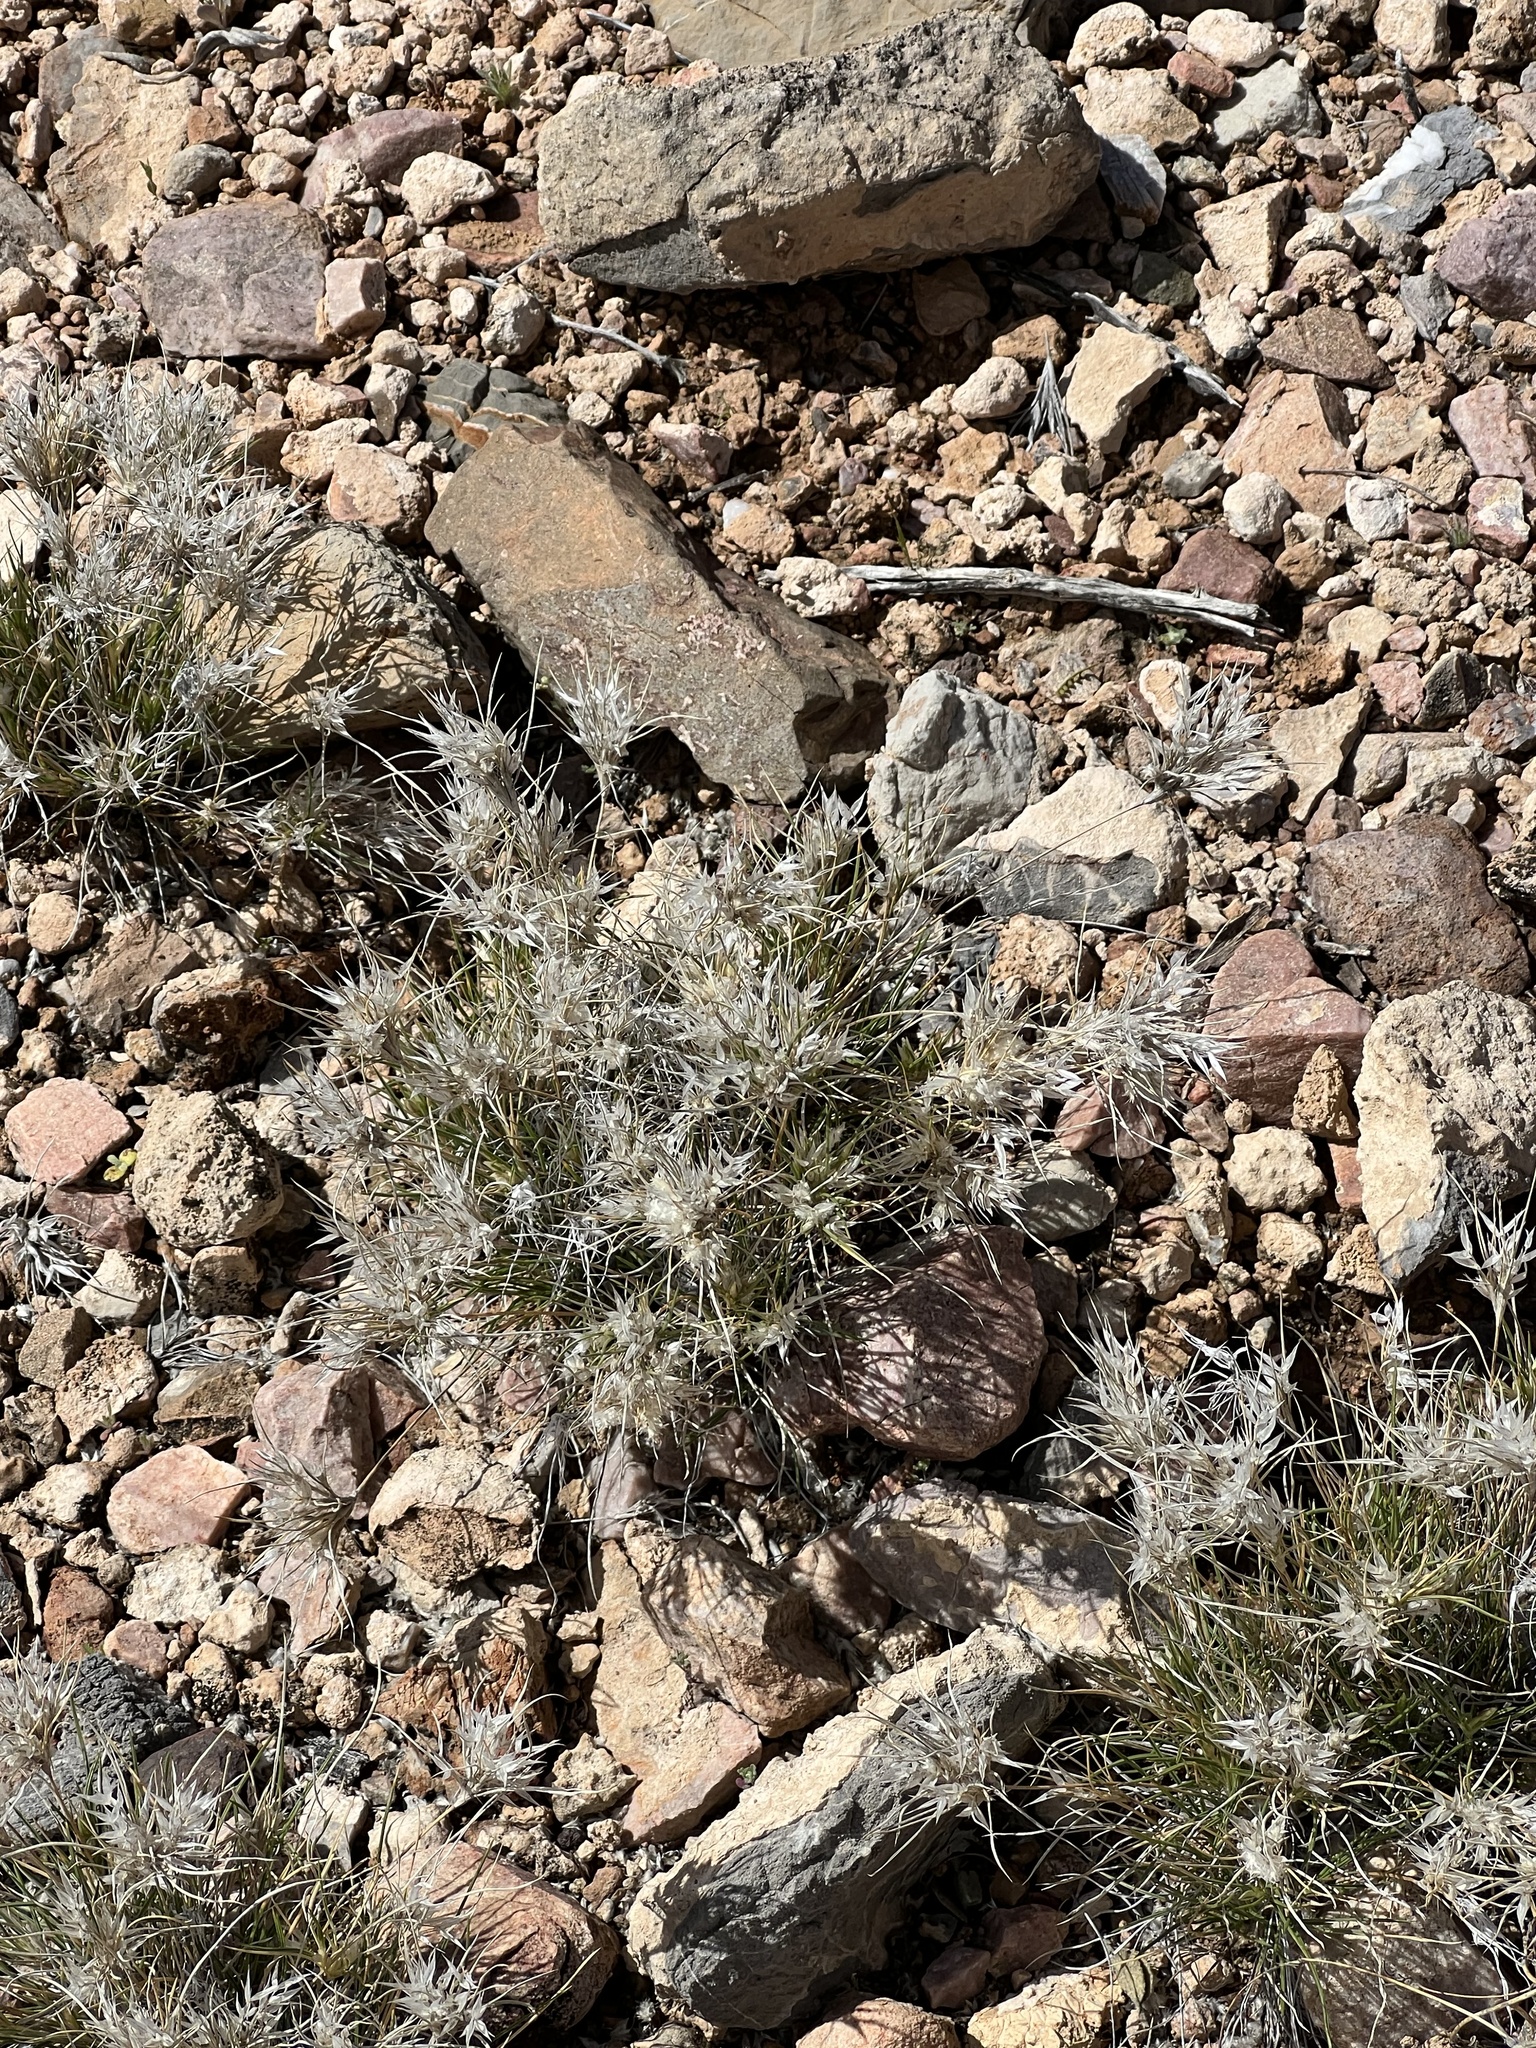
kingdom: Plantae
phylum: Tracheophyta
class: Liliopsida
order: Poales
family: Poaceae
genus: Dasyochloa
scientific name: Dasyochloa pulchella
